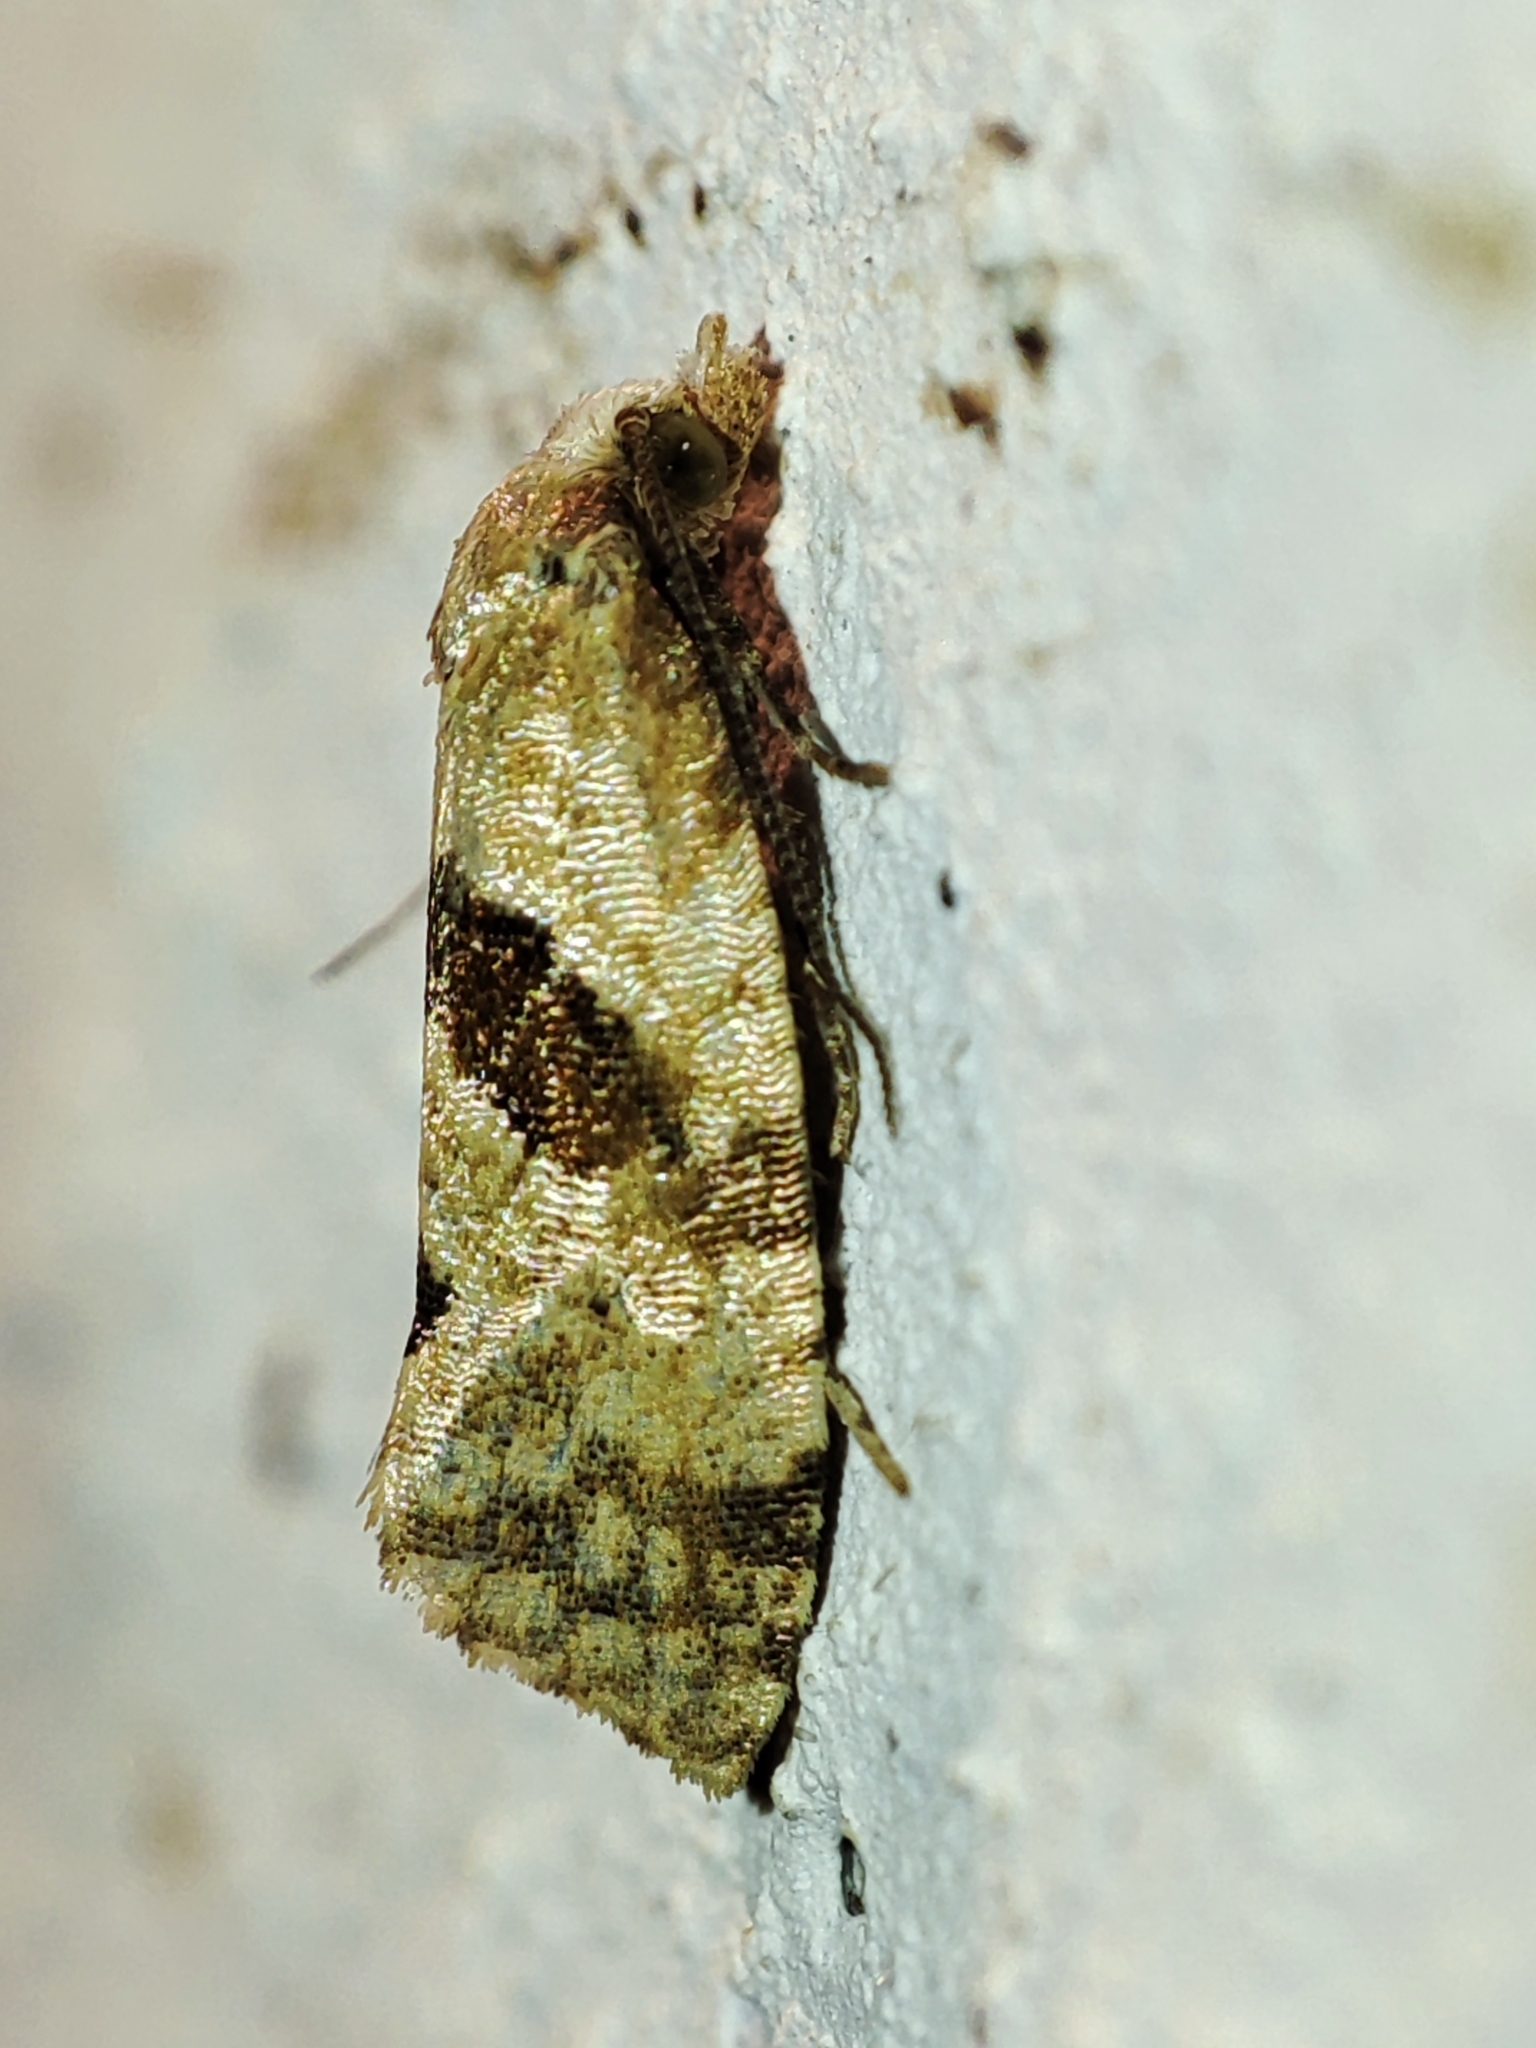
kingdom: Animalia
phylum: Arthropoda
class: Insecta
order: Lepidoptera
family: Tortricidae
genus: Cochylidia
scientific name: Cochylidia heydeniana
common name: Blue-fleabane conch
